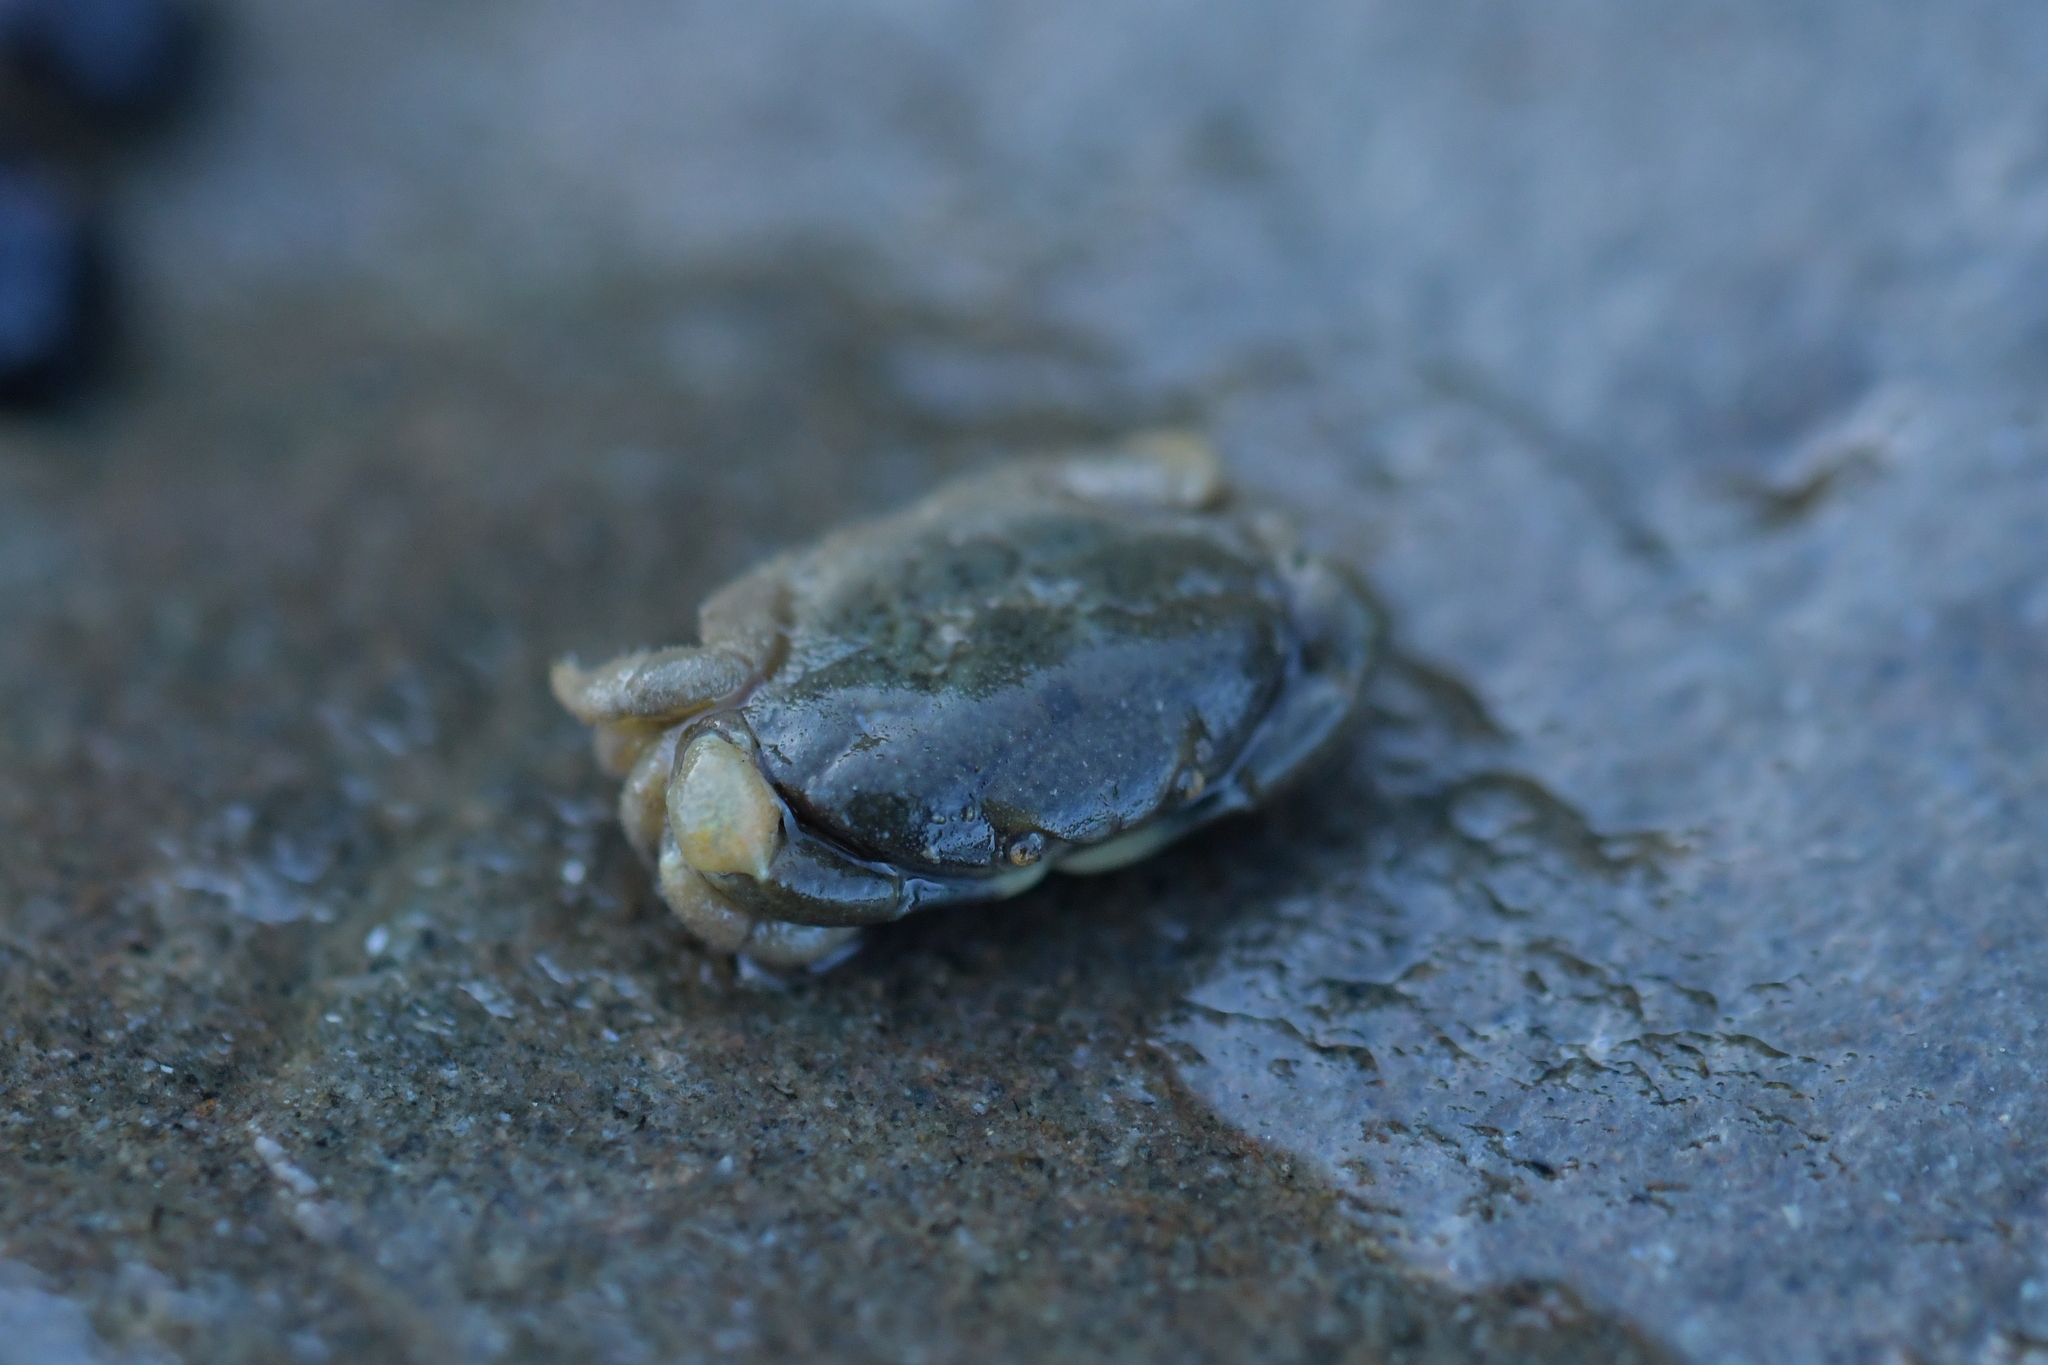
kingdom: Animalia
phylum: Arthropoda
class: Malacostraca
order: Decapoda
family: Heteroziidae
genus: Heterozius
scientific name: Heterozius rotundifrons
